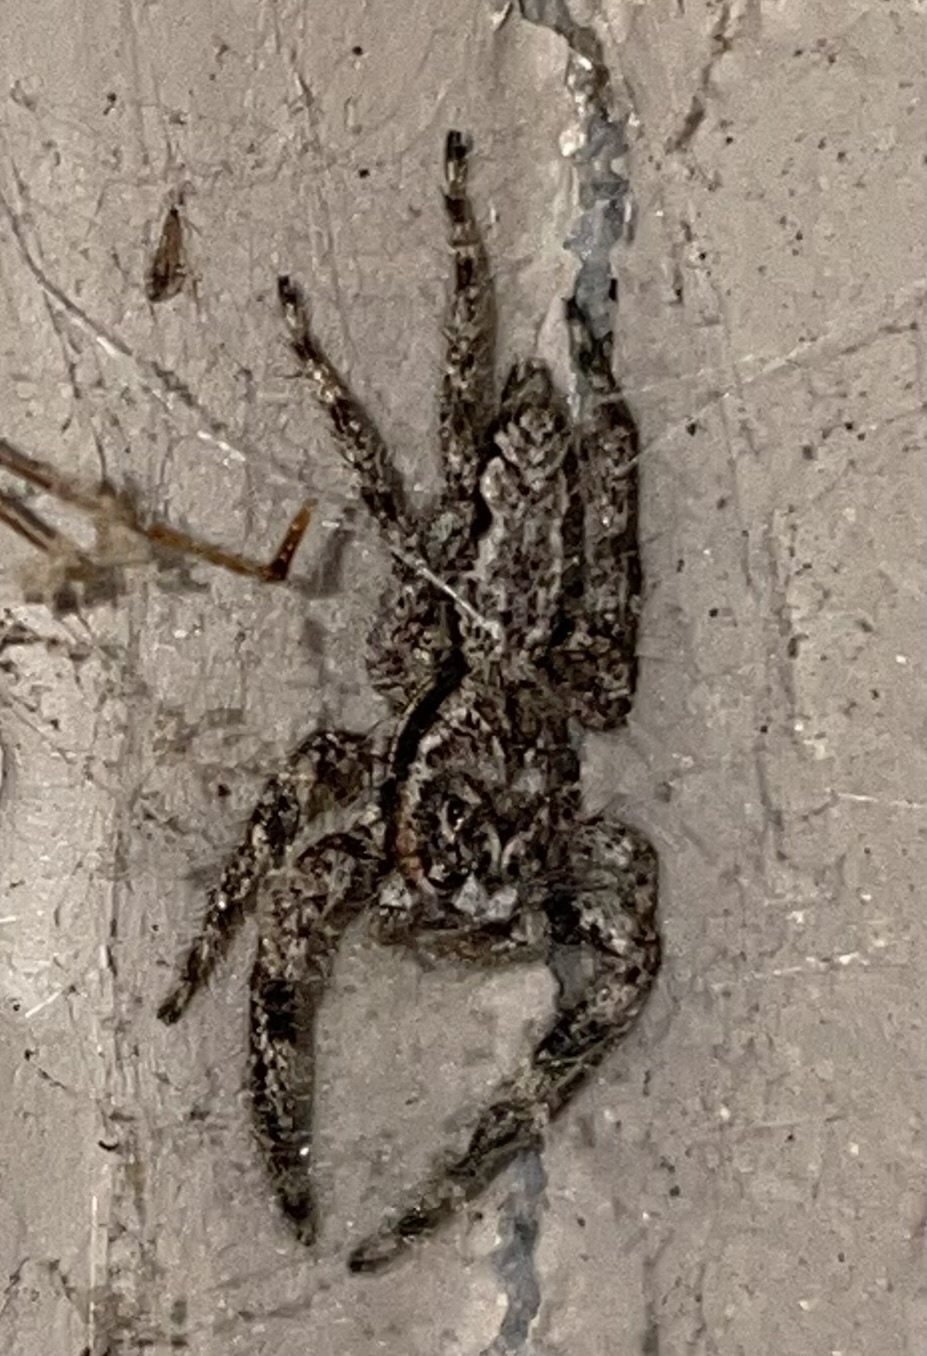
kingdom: Animalia
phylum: Arthropoda
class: Arachnida
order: Araneae
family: Salticidae
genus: Platycryptus
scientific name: Platycryptus undatus
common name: Tan jumping spider
